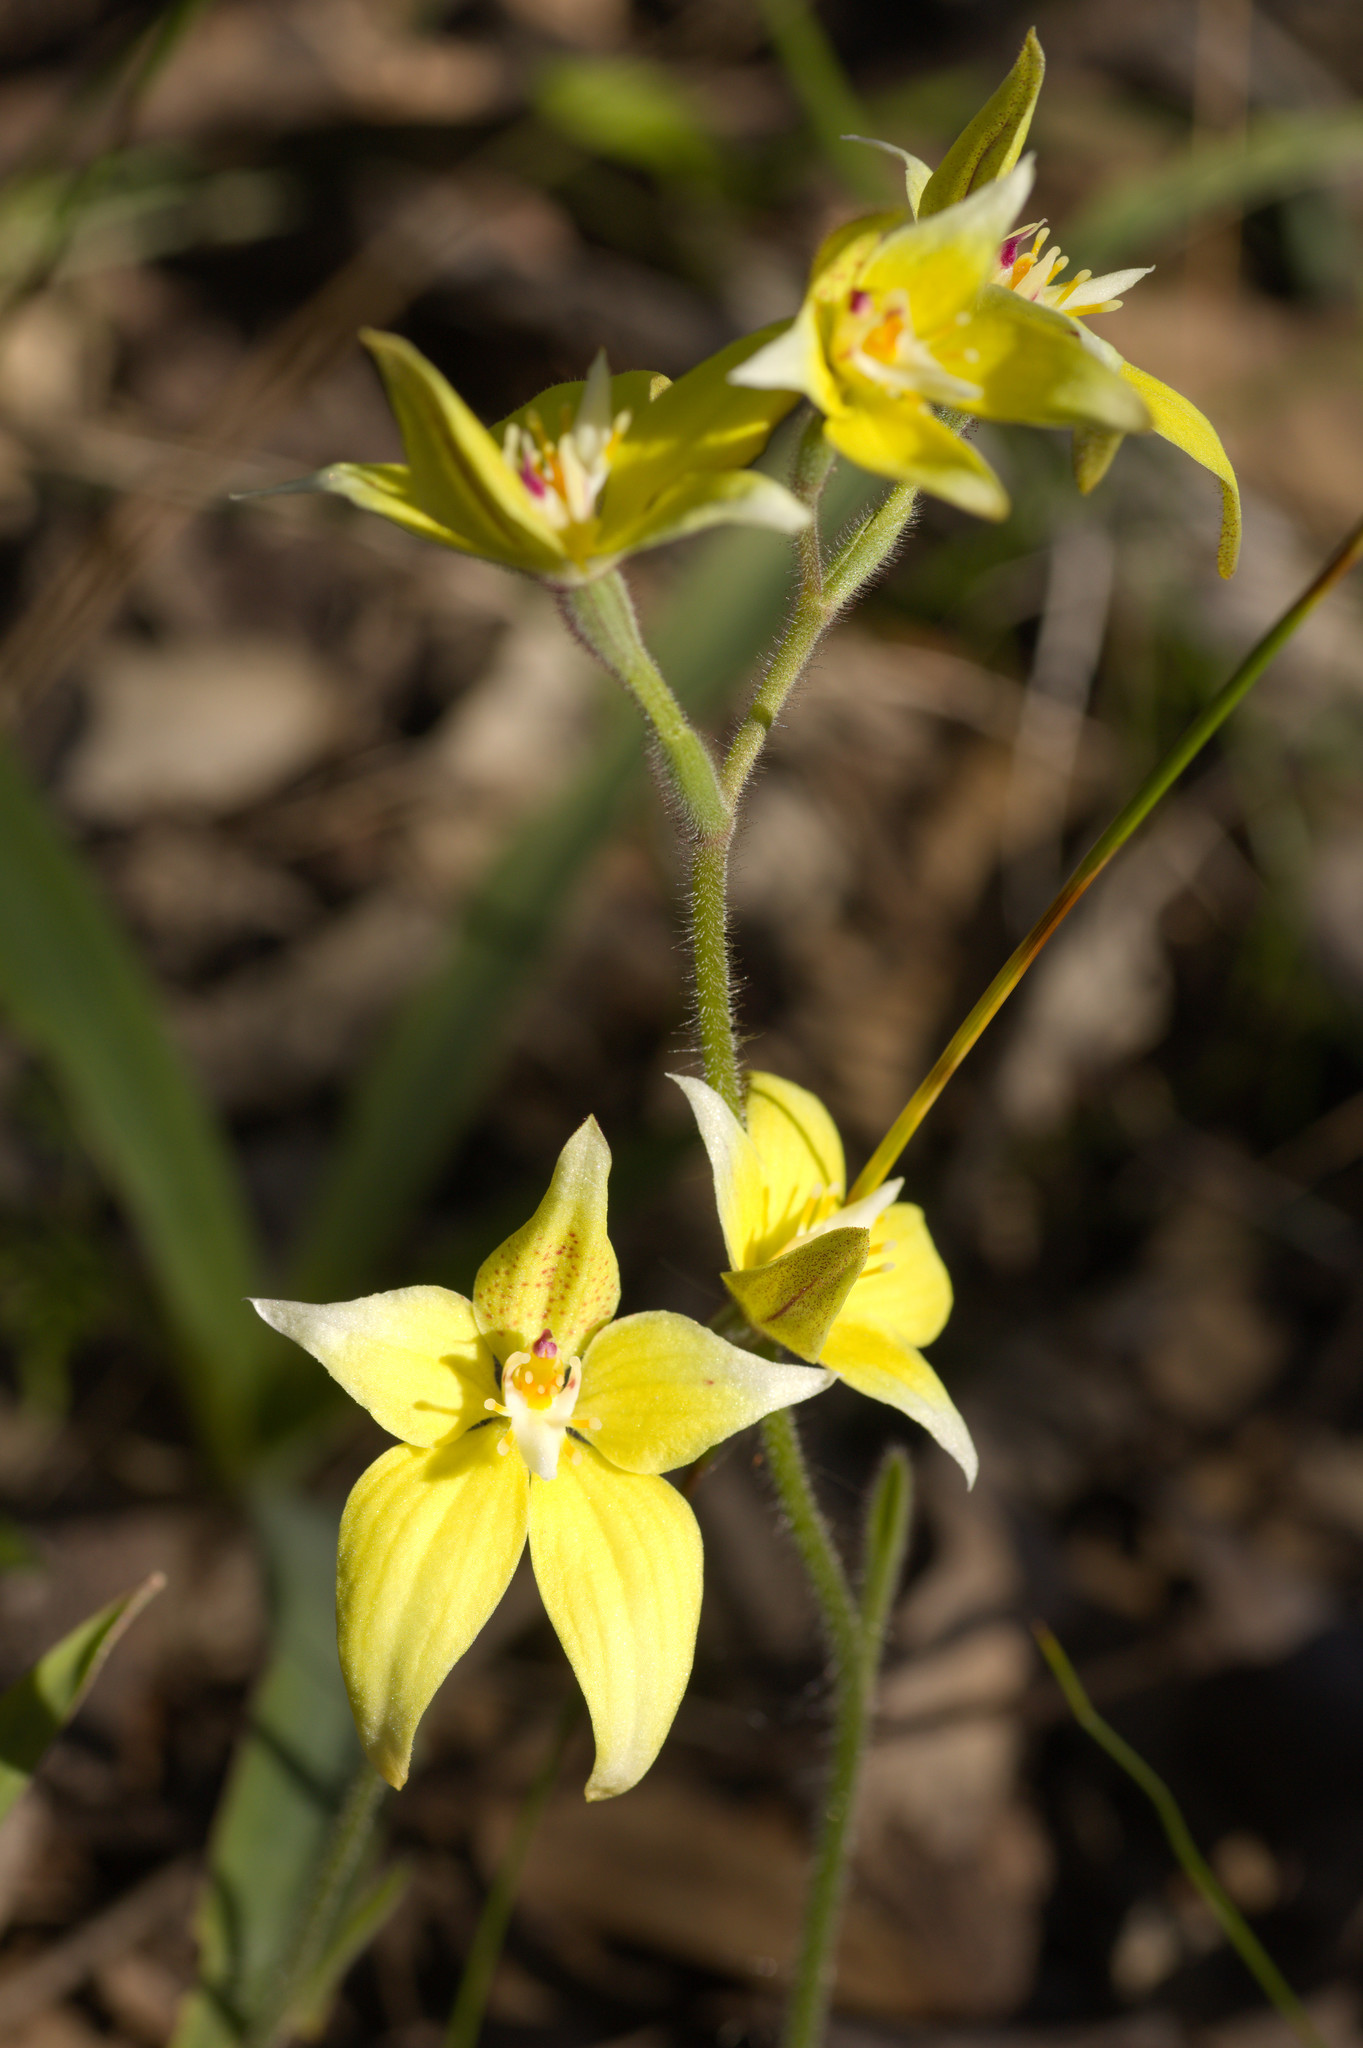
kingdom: Plantae
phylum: Tracheophyta
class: Liliopsida
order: Asparagales
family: Orchidaceae
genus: Caladenia
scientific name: Caladenia flava
